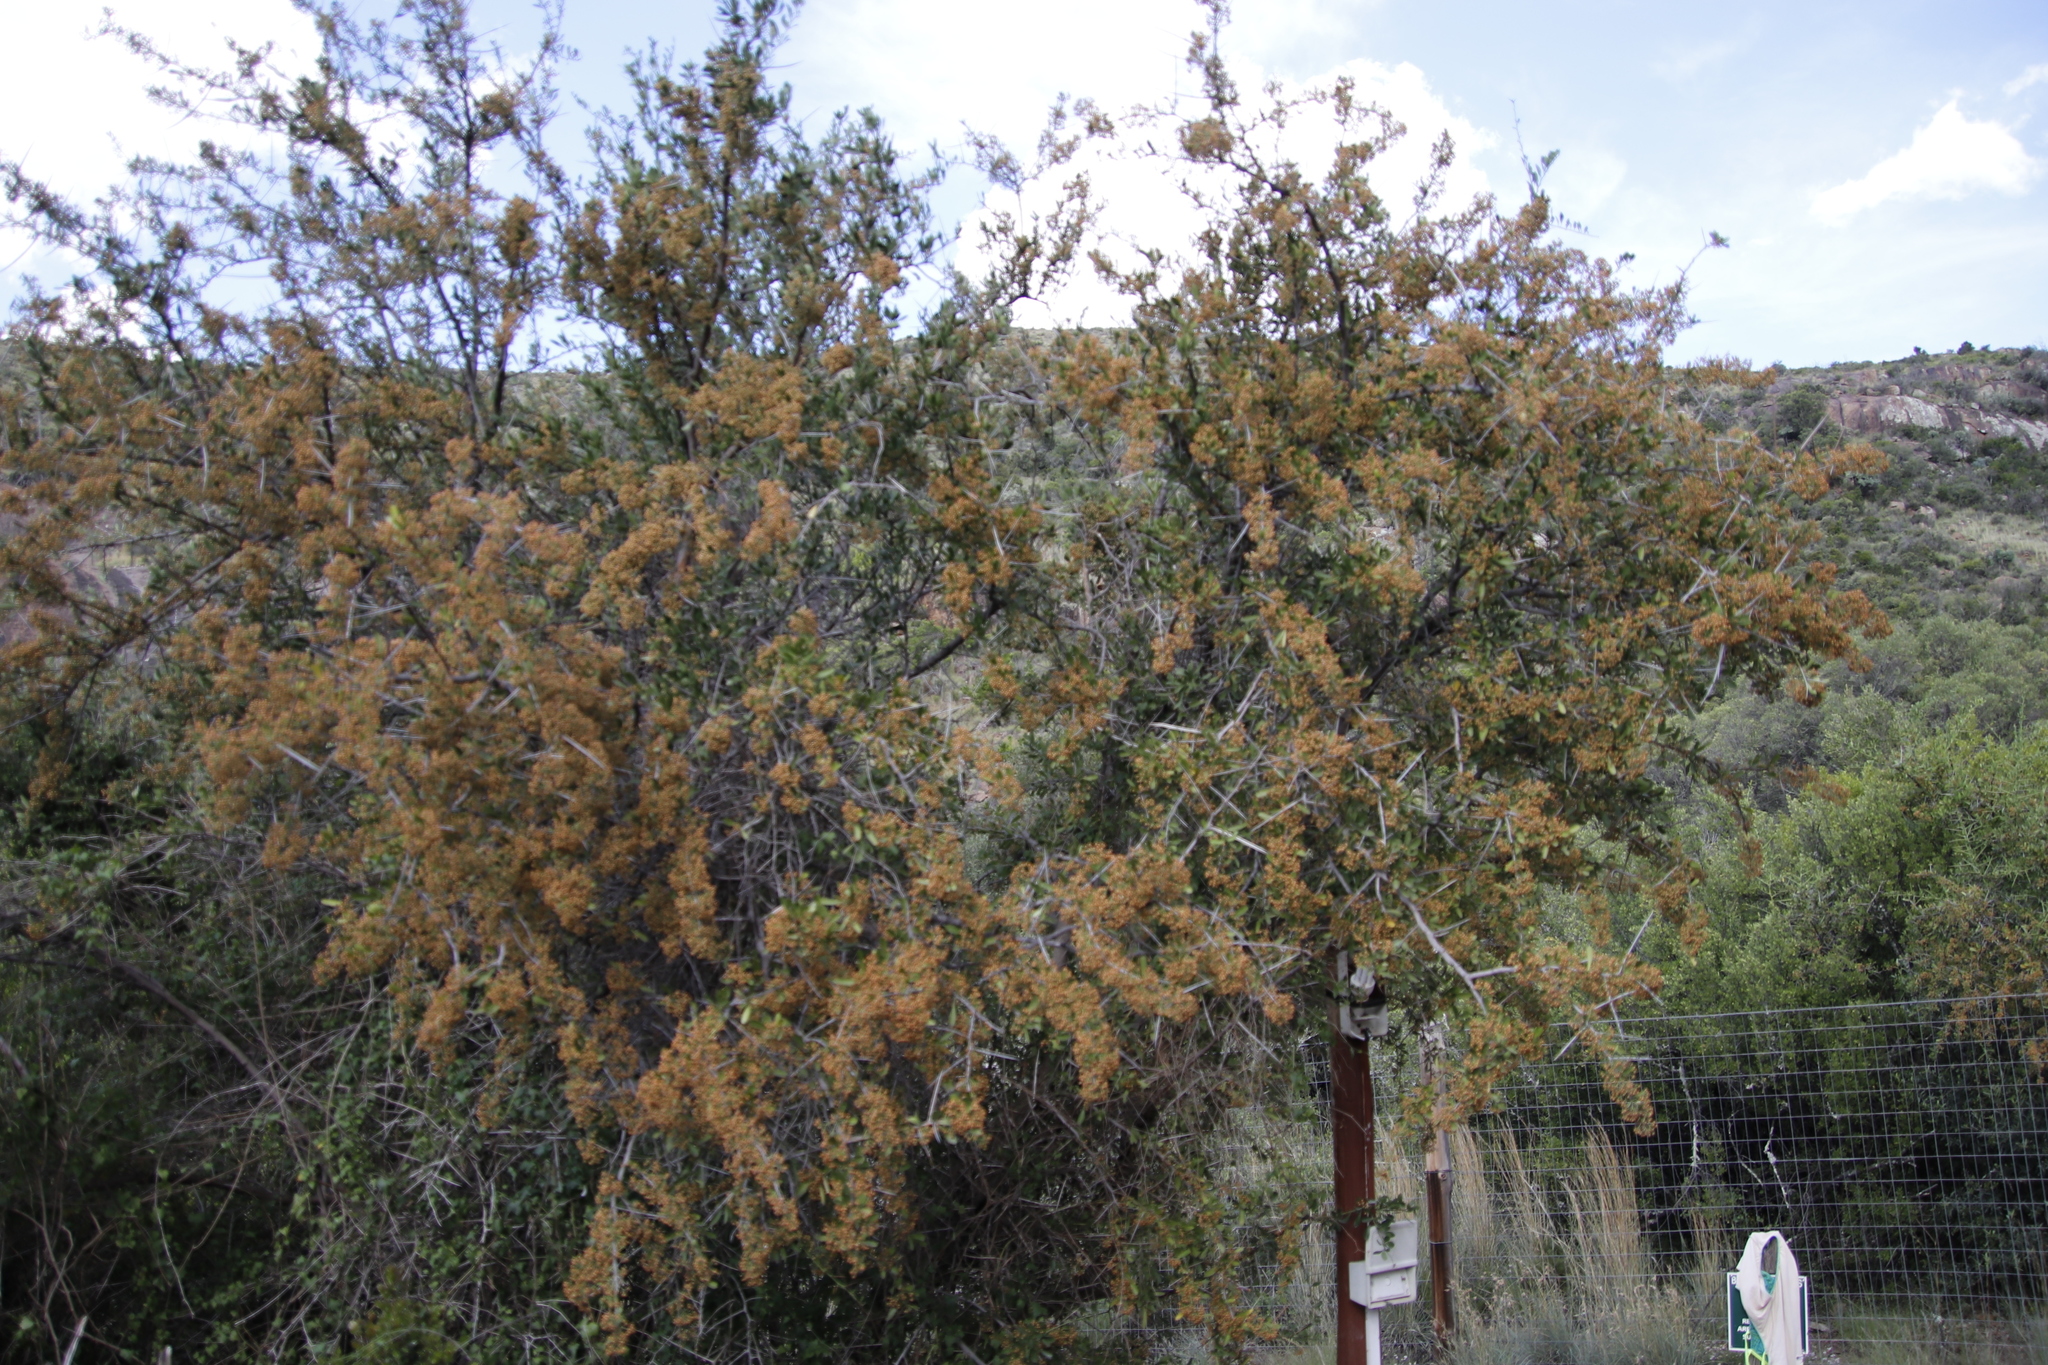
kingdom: Plantae
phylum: Tracheophyta
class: Magnoliopsida
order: Celastrales
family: Celastraceae
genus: Gymnosporia
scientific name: Gymnosporia buxifolia
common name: Common spike-thorn
